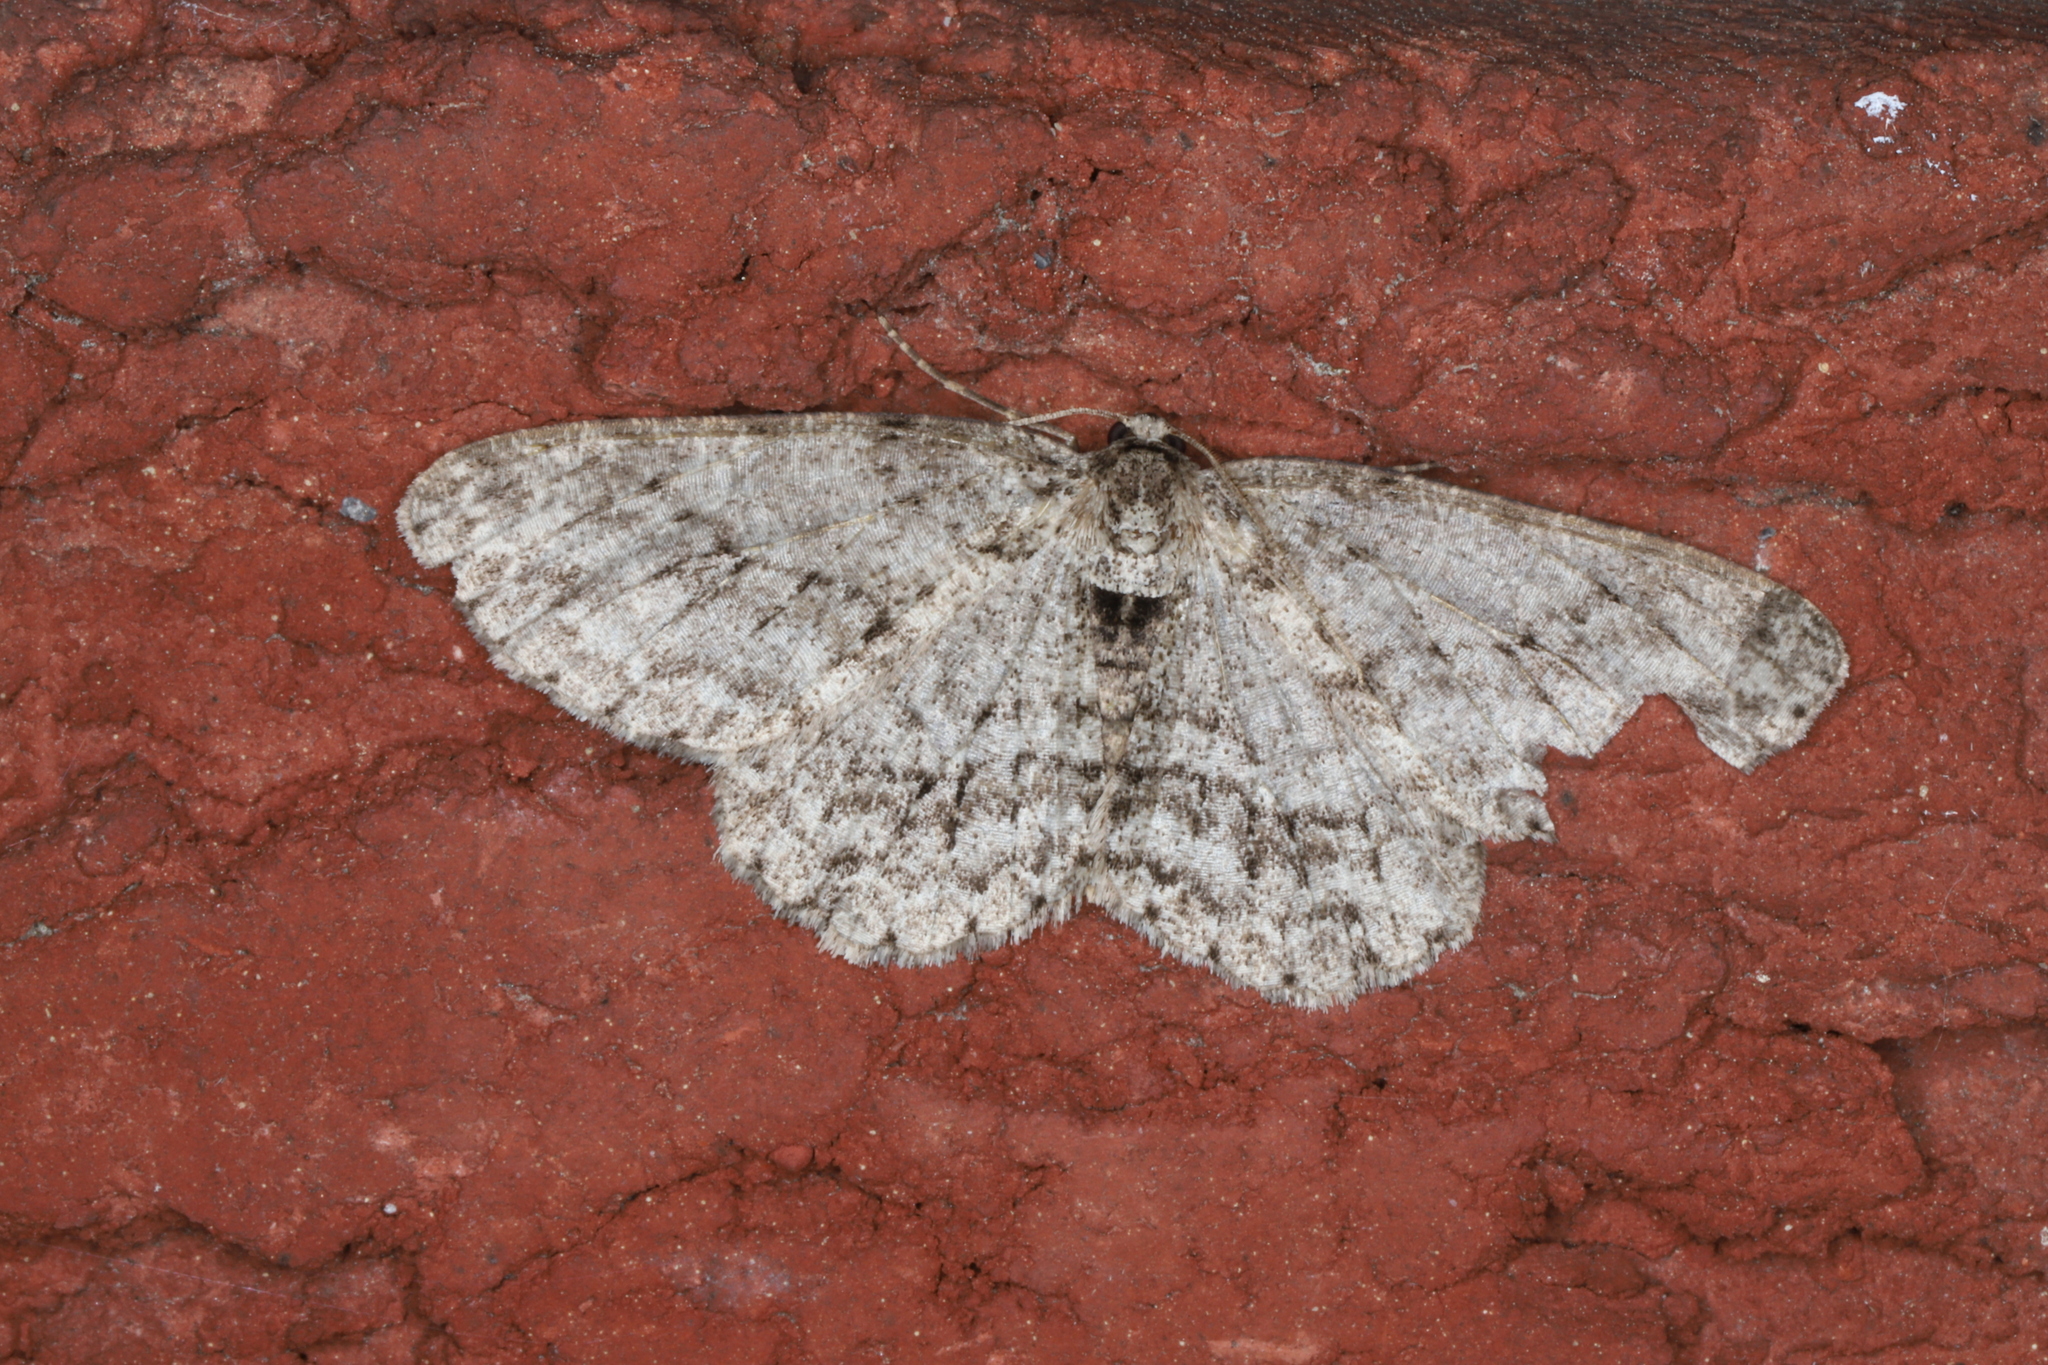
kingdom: Animalia
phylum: Arthropoda
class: Insecta
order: Lepidoptera
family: Geometridae
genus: Ectropis
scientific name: Ectropis crepuscularia
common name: Engrailed
